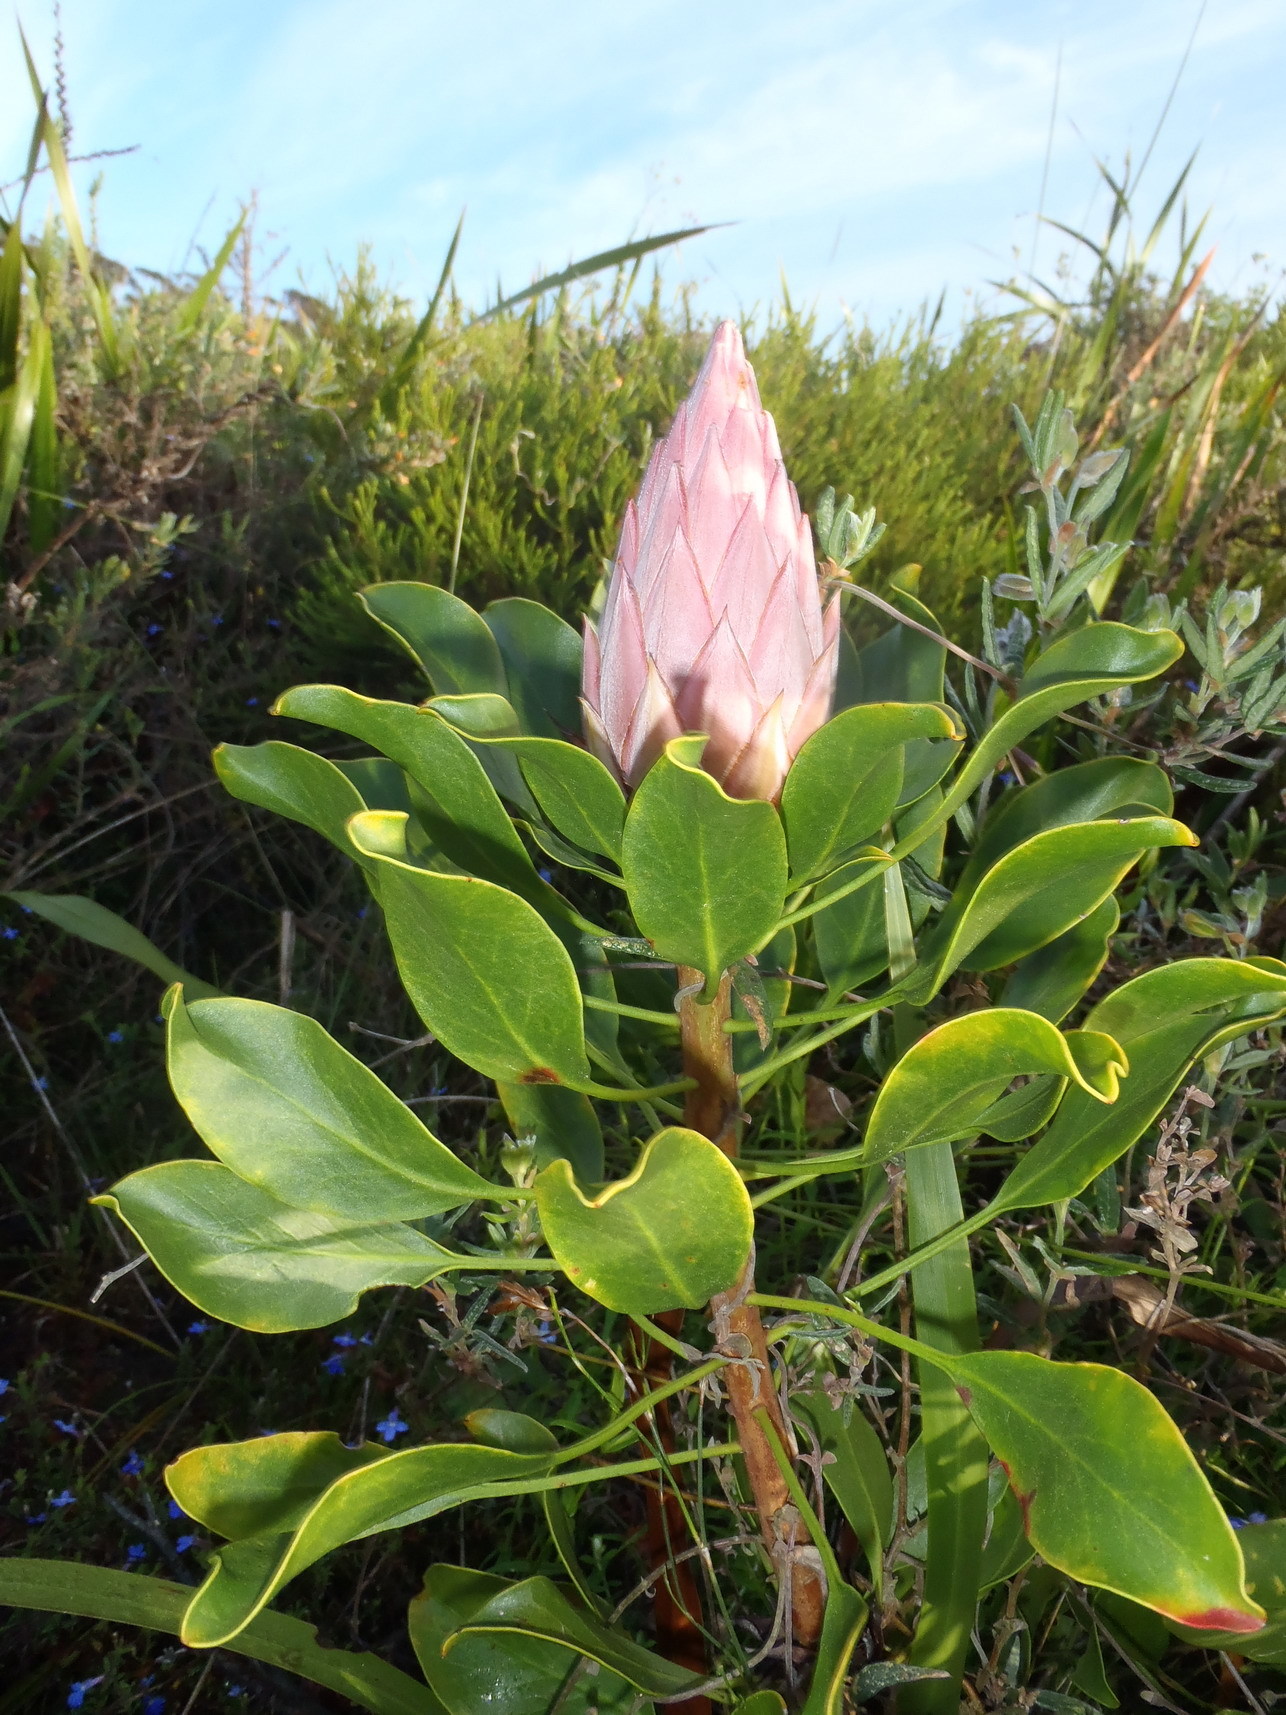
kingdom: Plantae
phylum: Tracheophyta
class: Magnoliopsida
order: Proteales
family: Proteaceae
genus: Protea
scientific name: Protea cynaroides
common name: King protea
